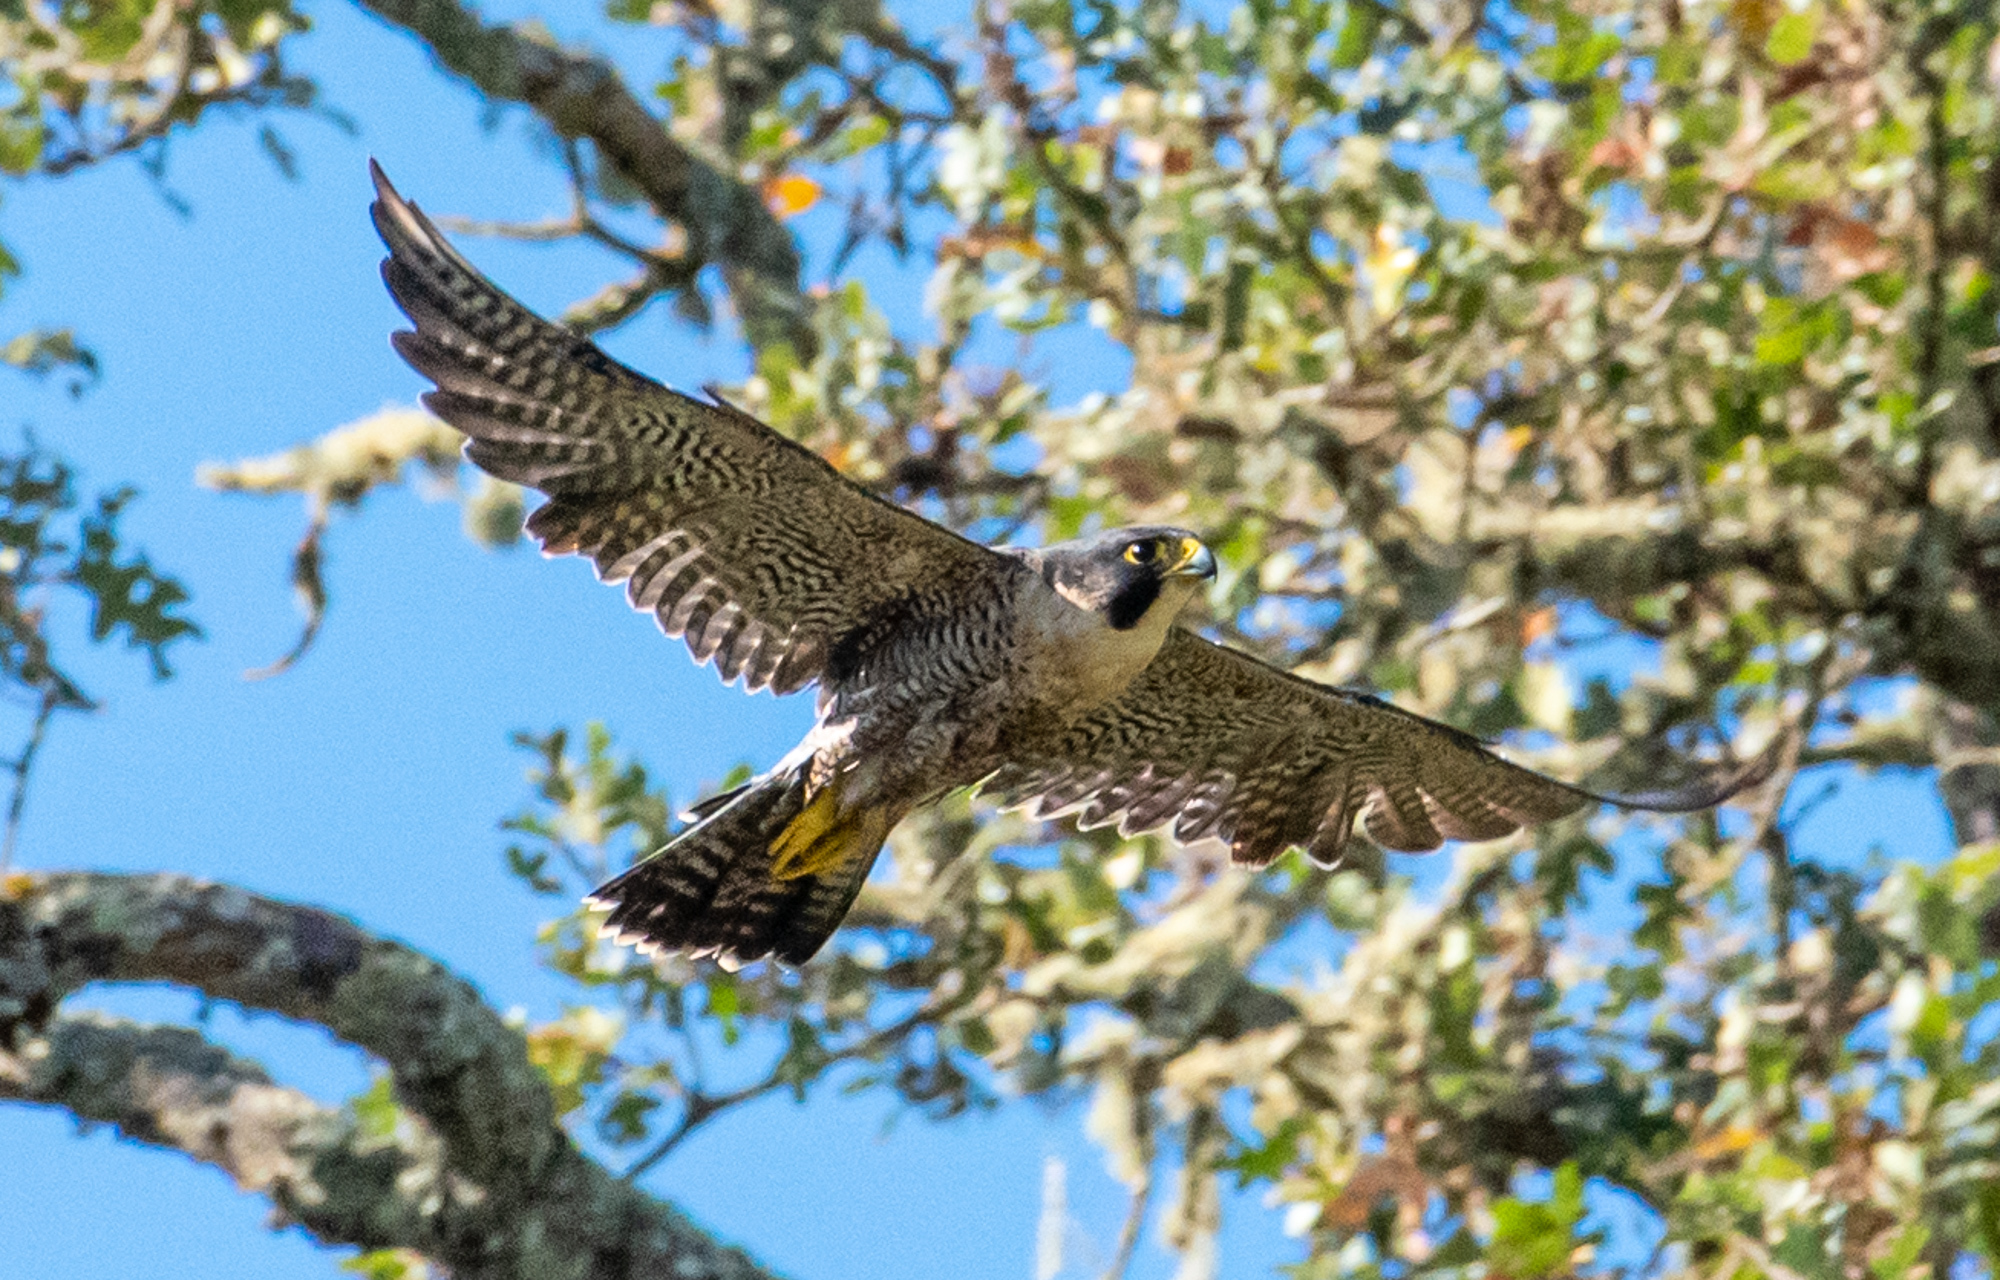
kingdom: Animalia
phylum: Chordata
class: Aves
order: Falconiformes
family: Falconidae
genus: Falco
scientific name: Falco peregrinus
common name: Peregrine falcon
